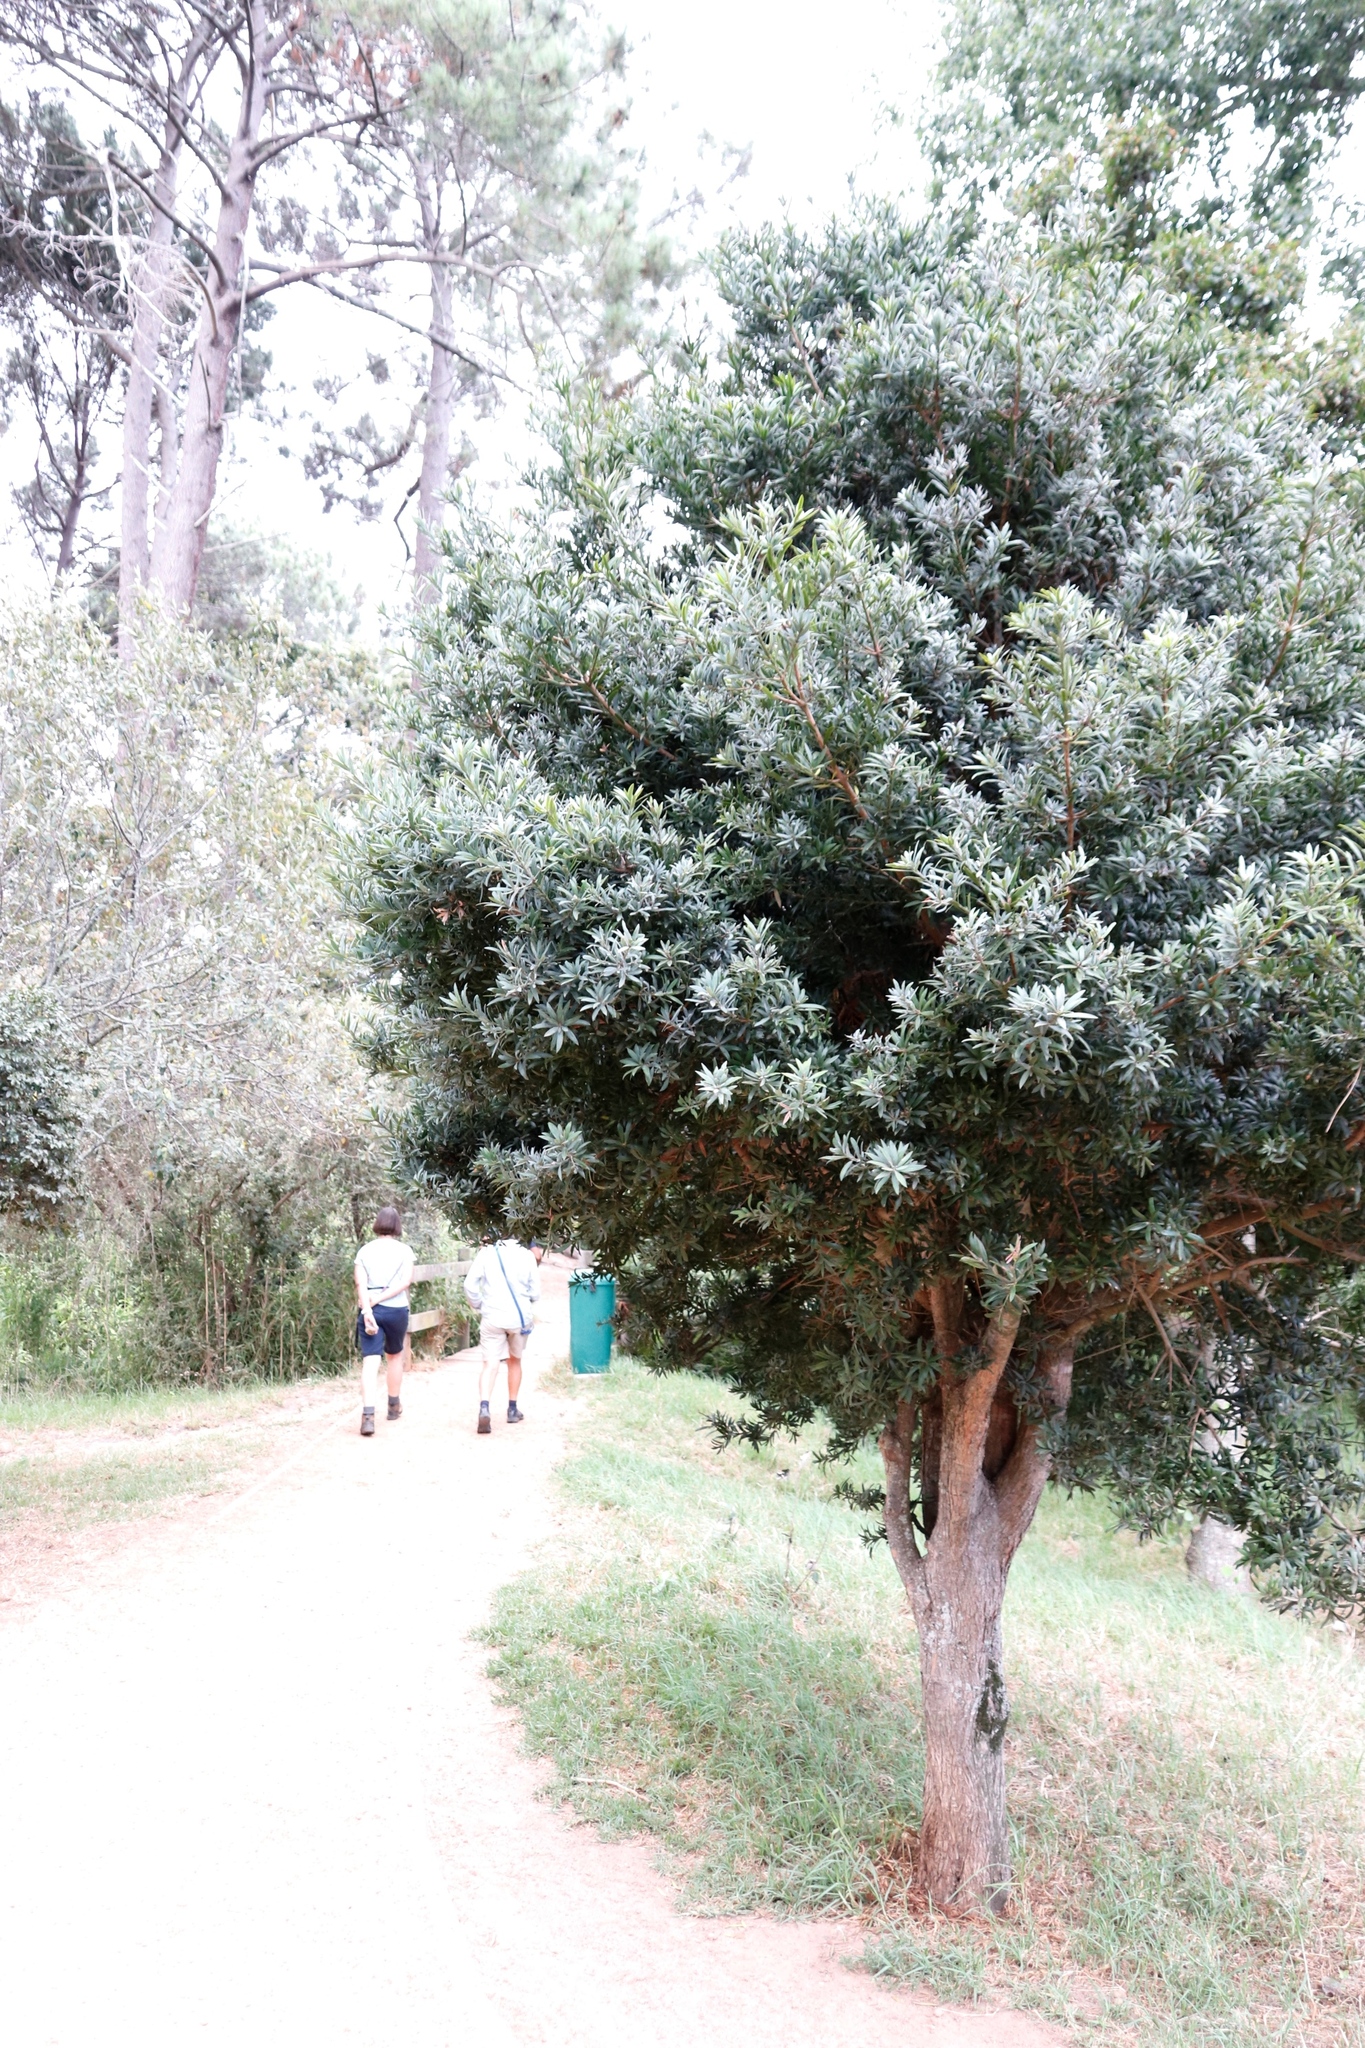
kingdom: Plantae
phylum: Tracheophyta
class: Pinopsida
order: Pinales
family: Podocarpaceae
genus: Podocarpus
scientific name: Podocarpus latifolius
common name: True yellowwood
